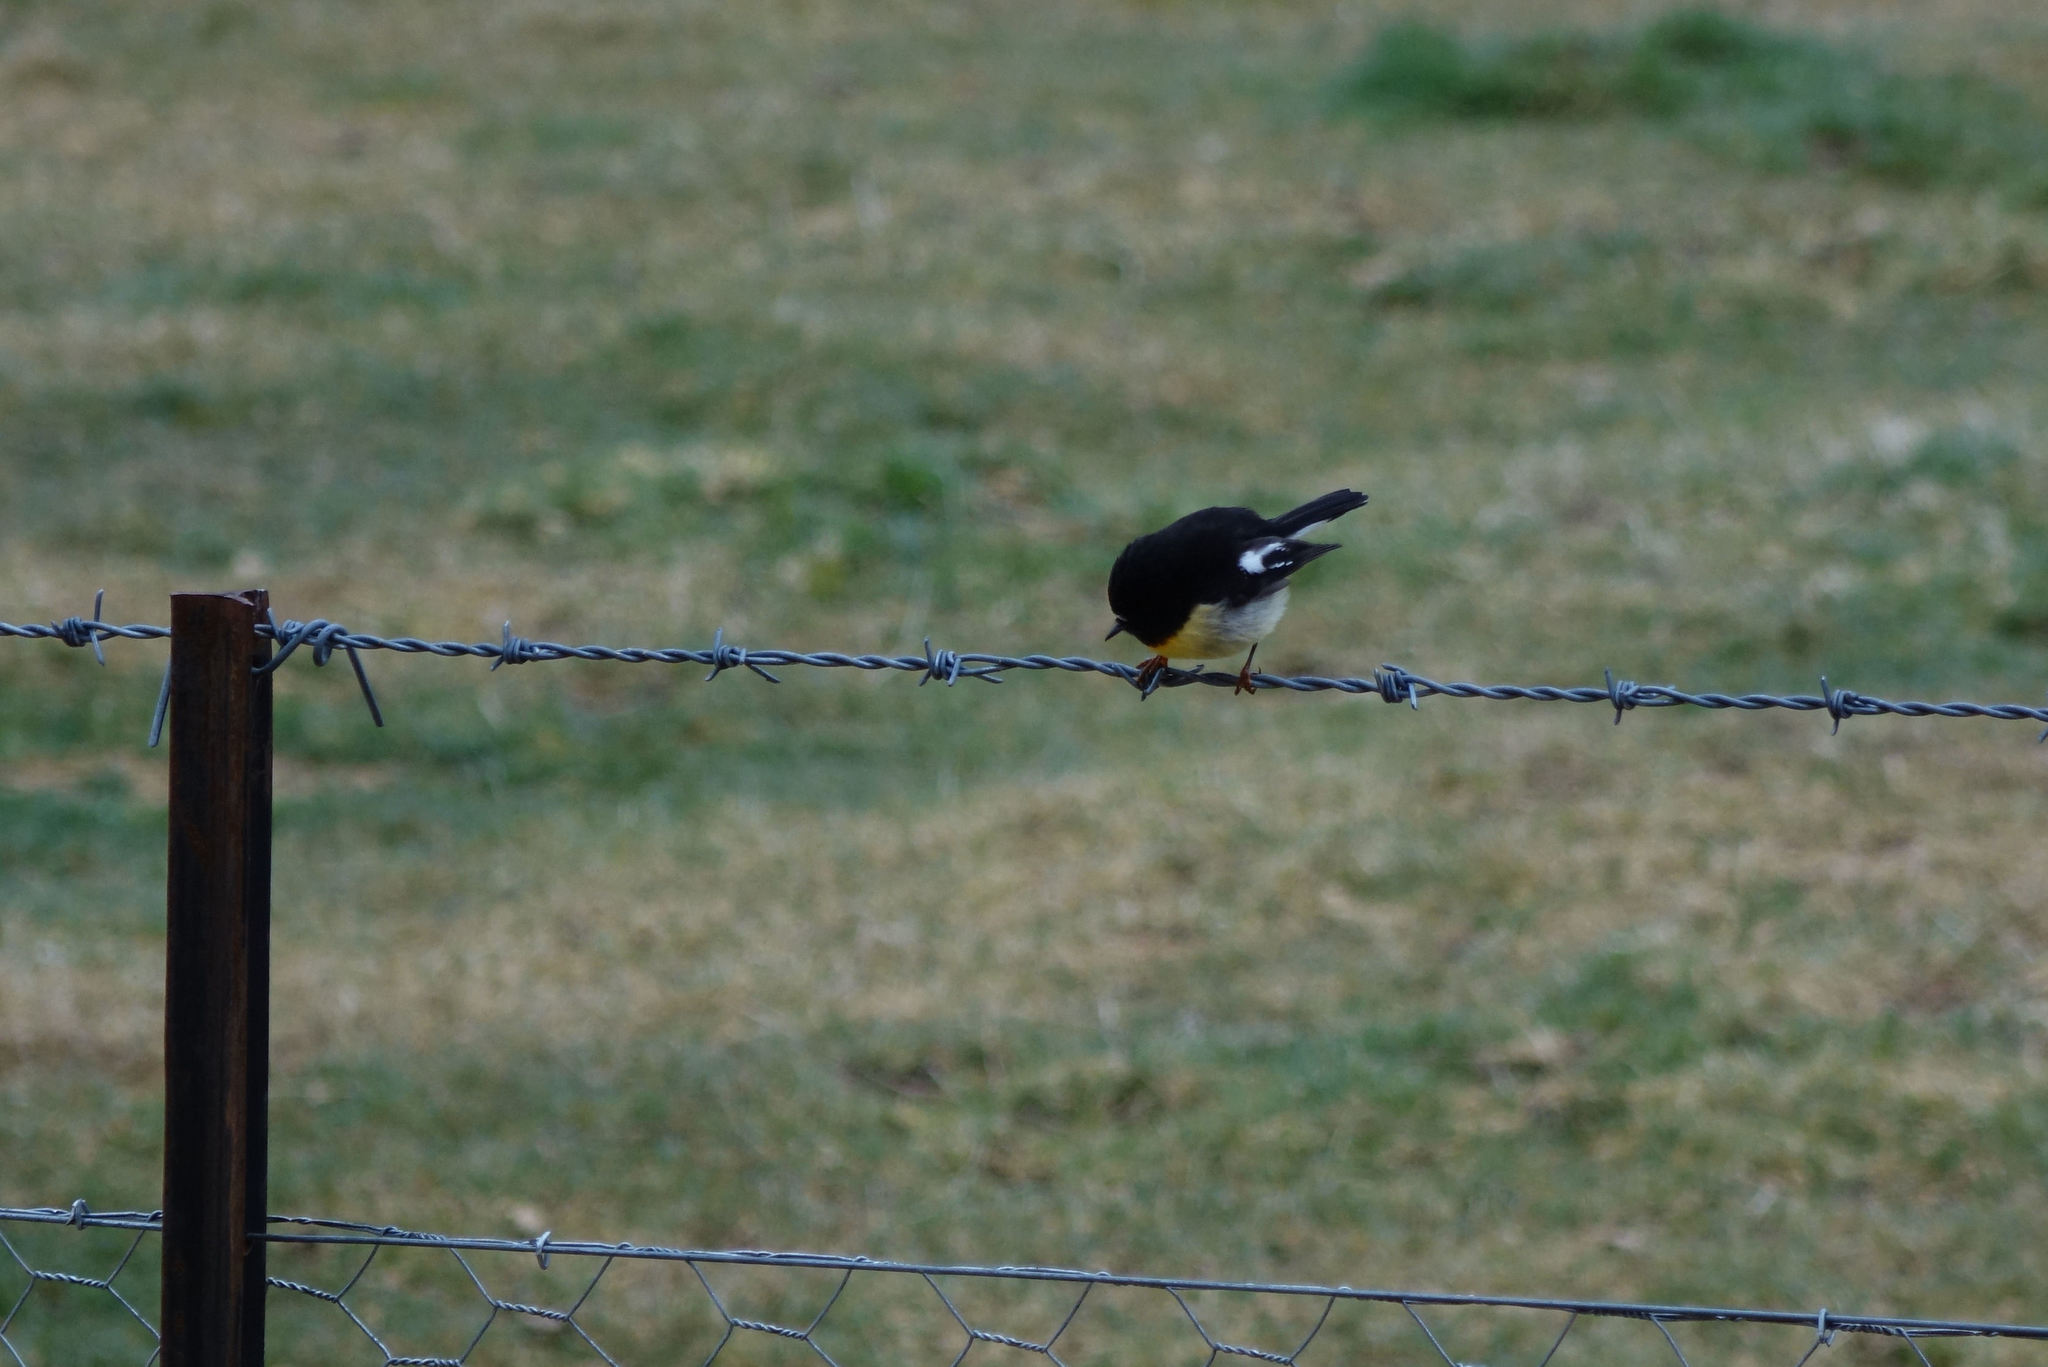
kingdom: Animalia
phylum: Chordata
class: Aves
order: Passeriformes
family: Petroicidae
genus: Petroica
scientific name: Petroica macrocephala
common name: Tomtit
